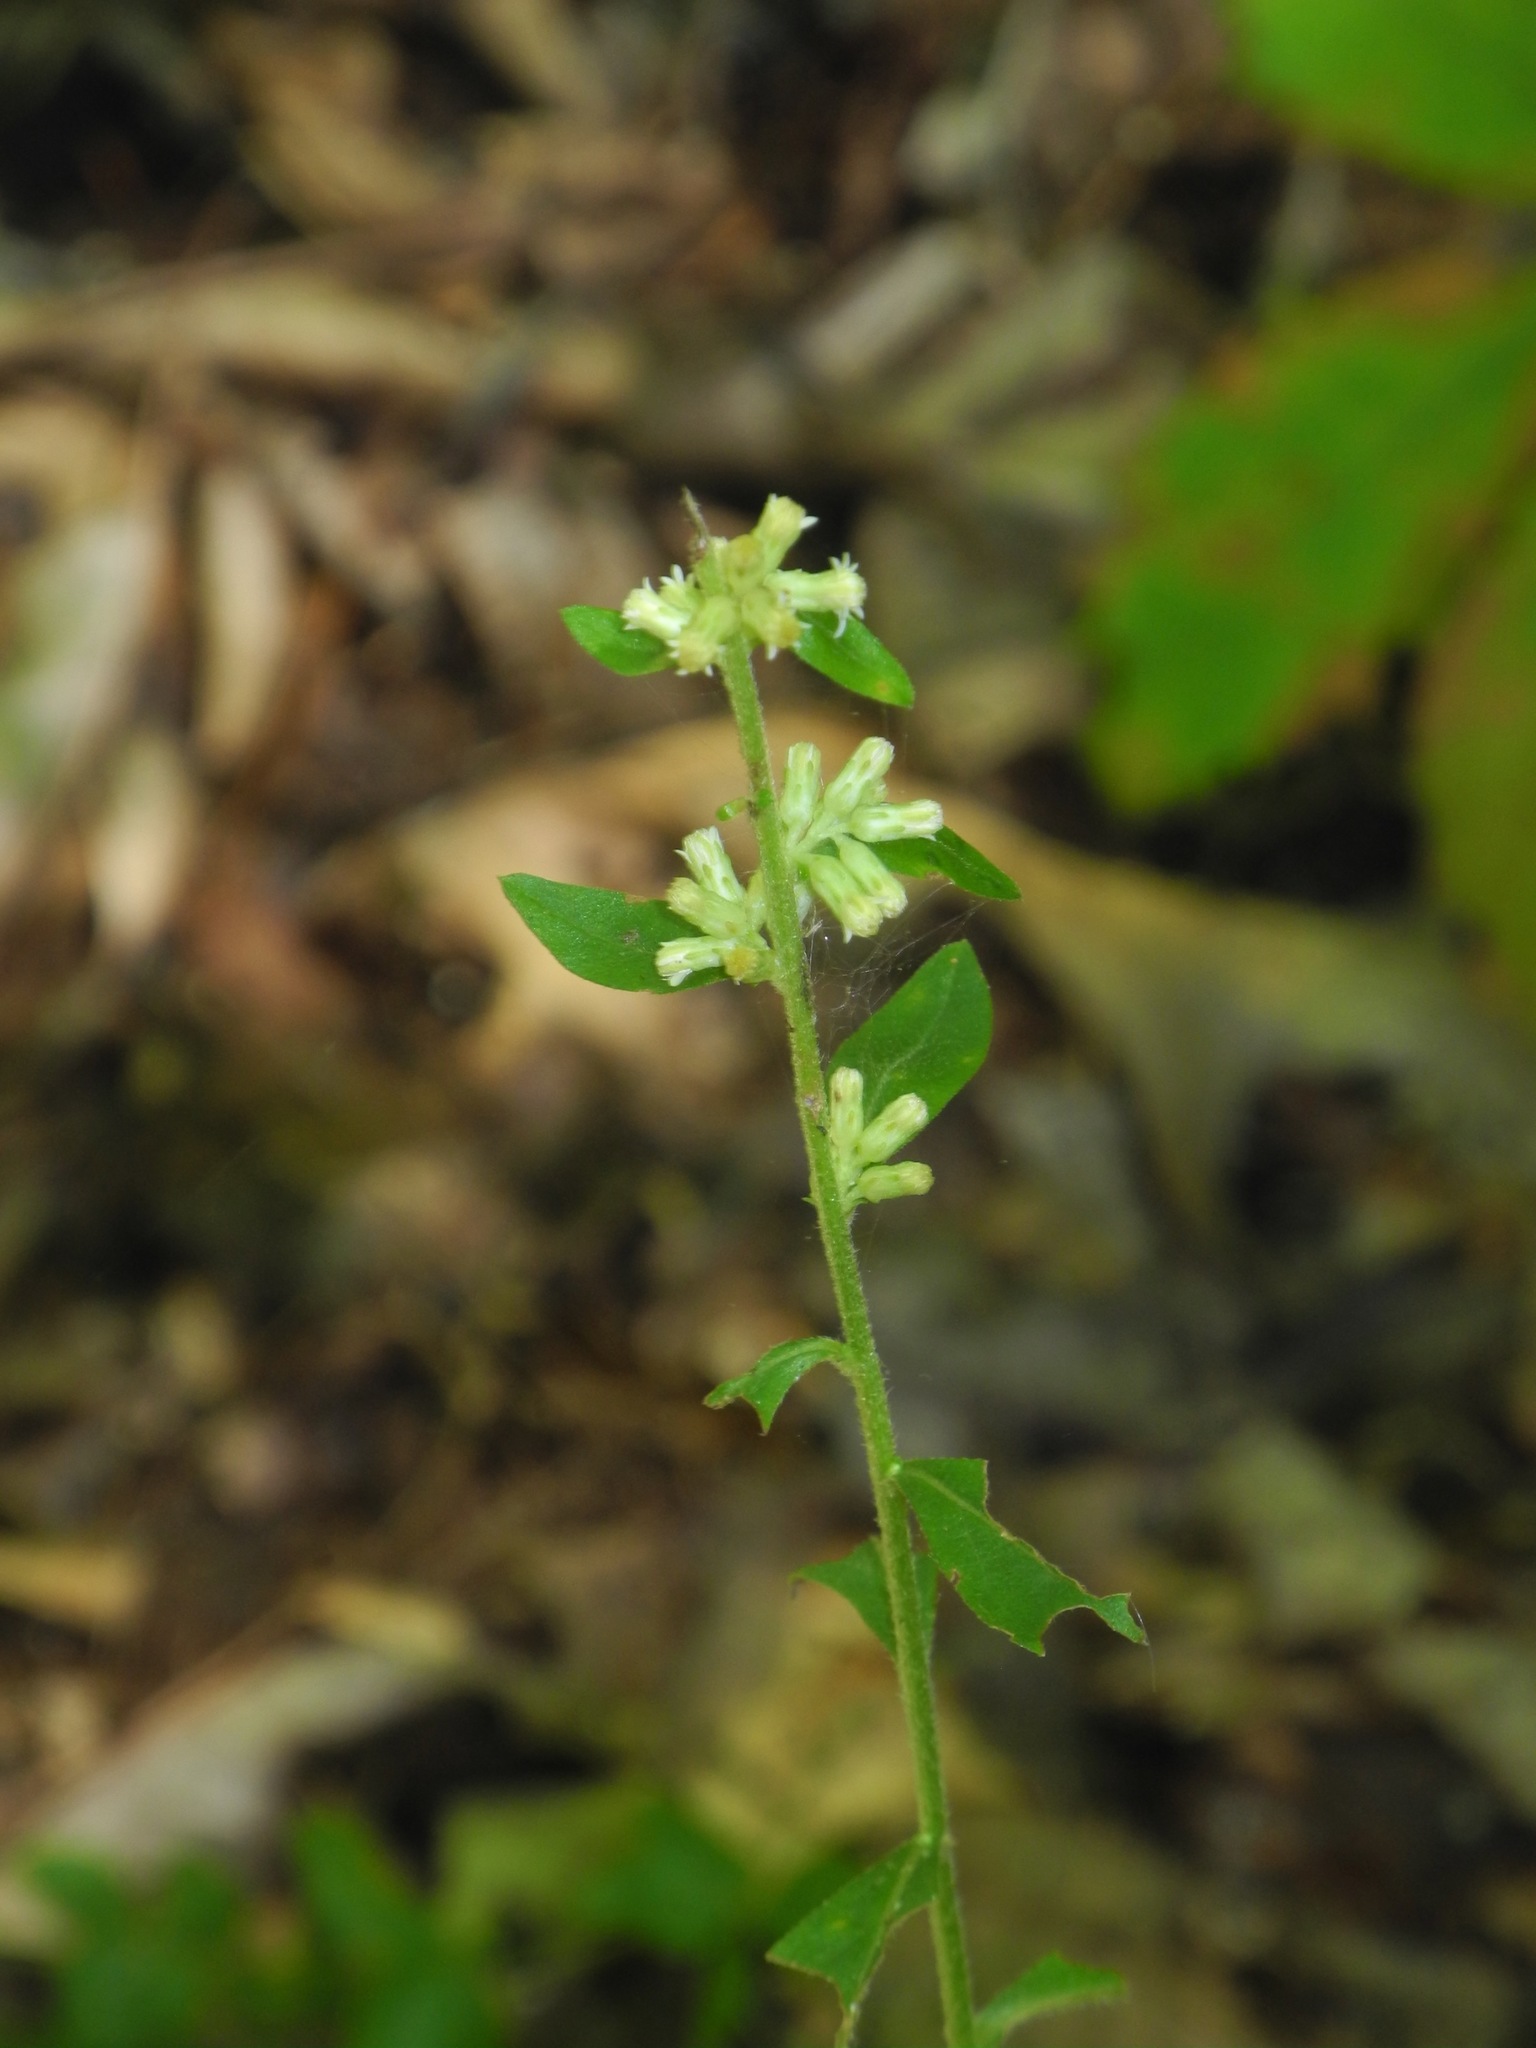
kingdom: Plantae
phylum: Tracheophyta
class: Magnoliopsida
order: Asterales
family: Asteraceae
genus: Solidago
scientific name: Solidago bicolor
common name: Silverrod
